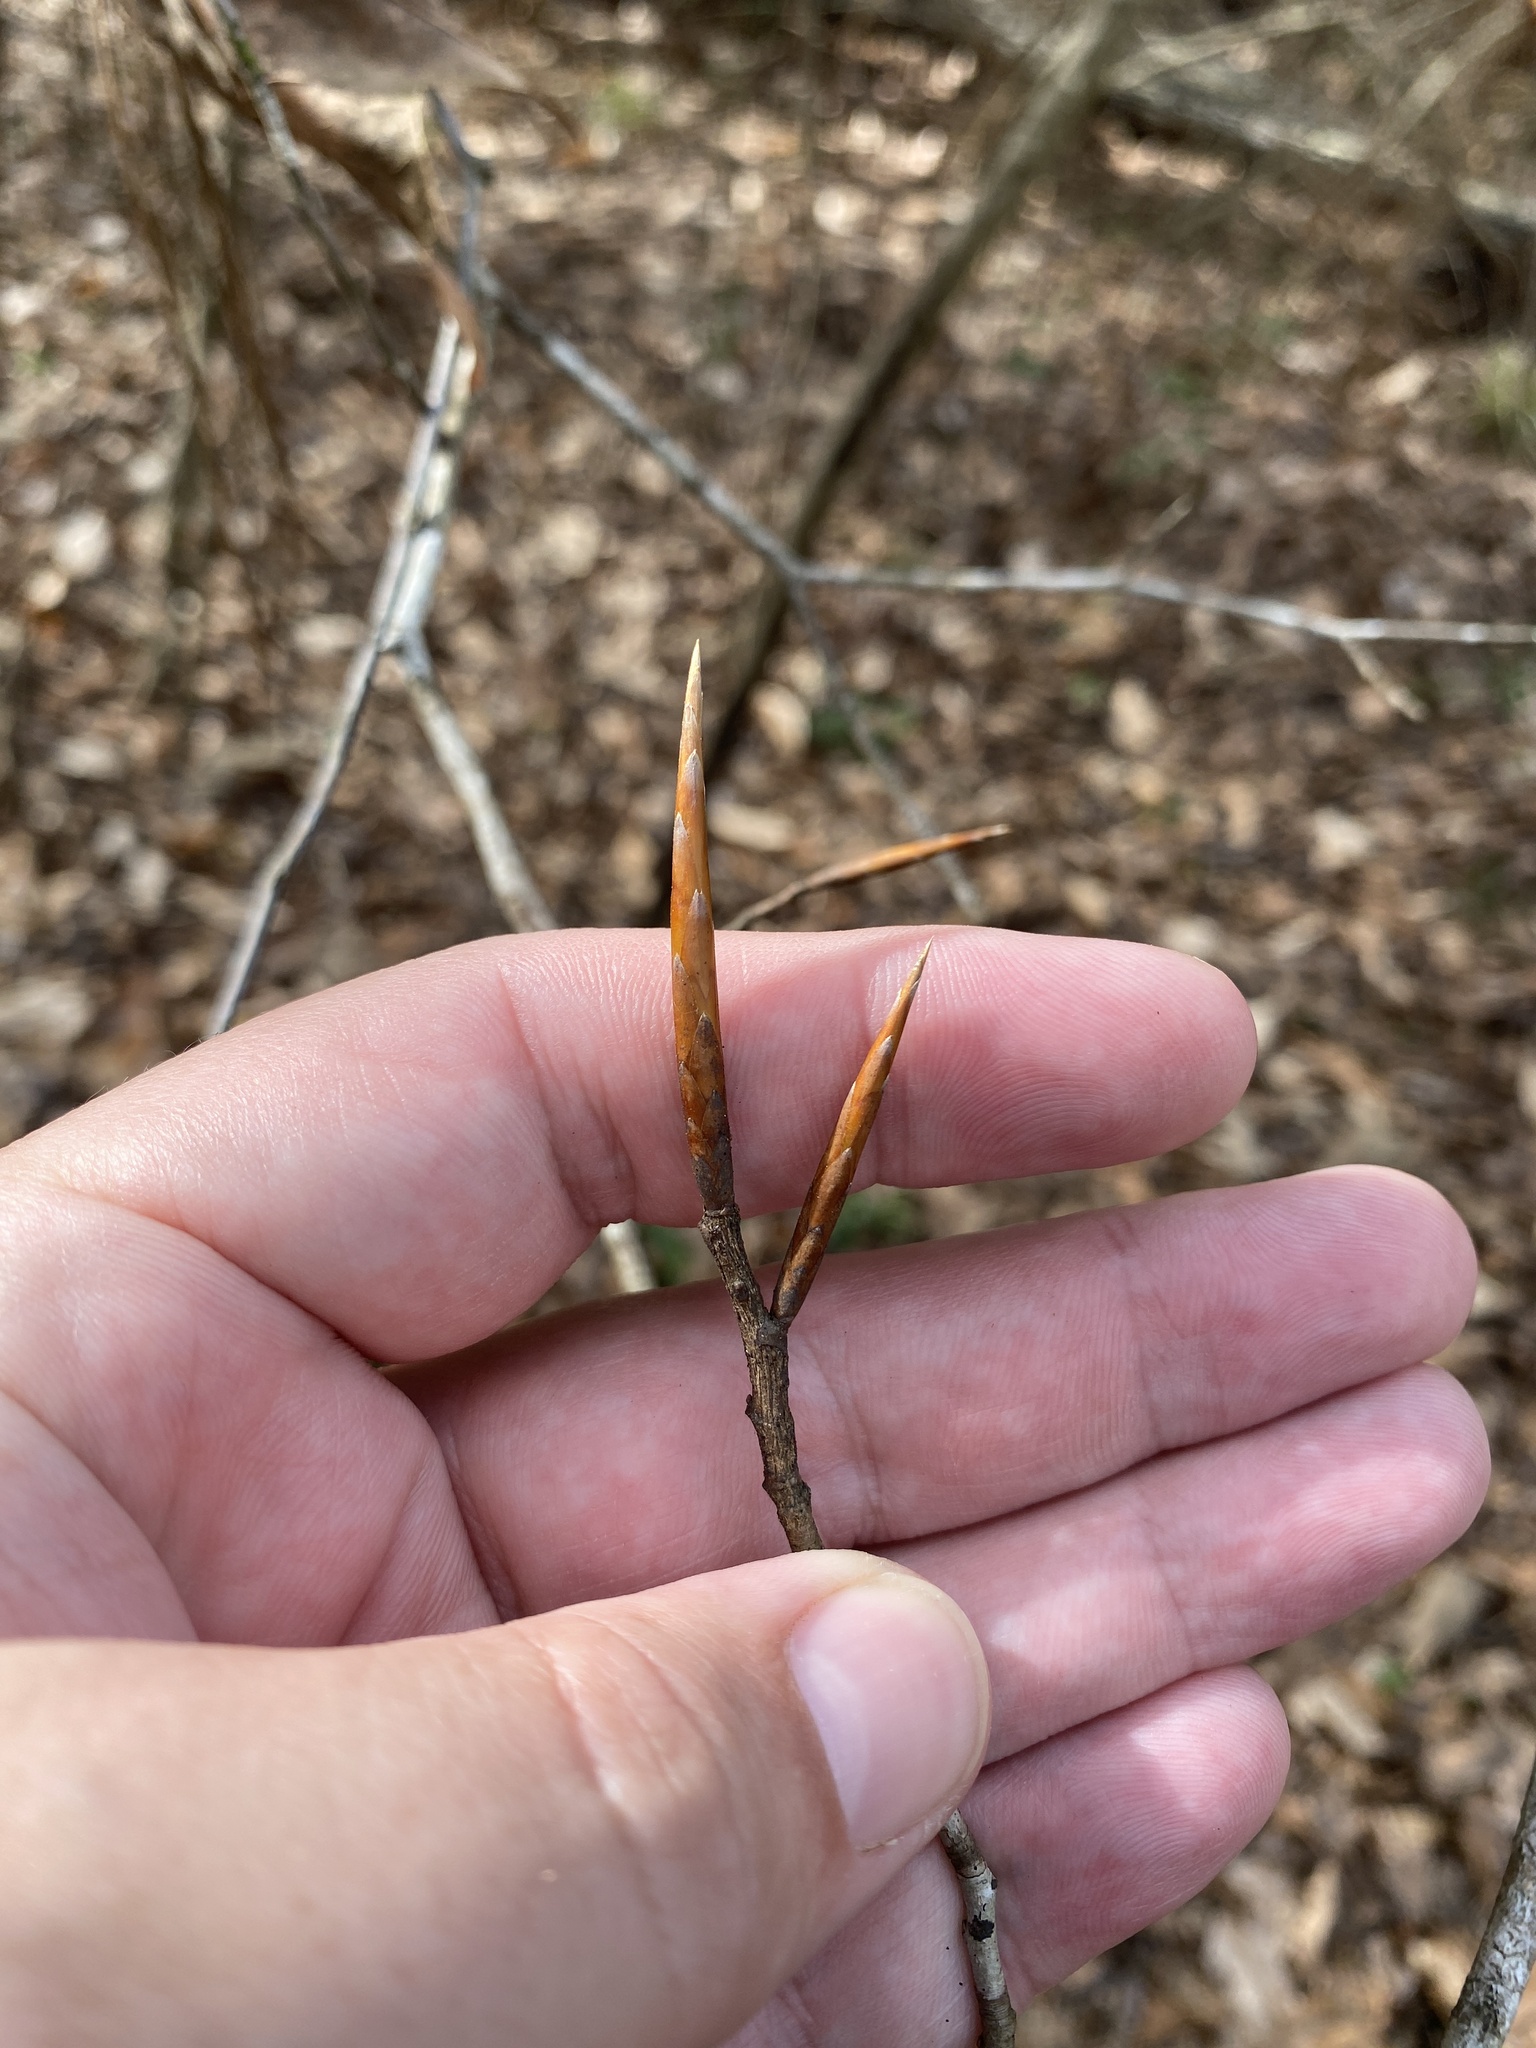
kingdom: Plantae
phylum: Tracheophyta
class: Magnoliopsida
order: Fagales
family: Fagaceae
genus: Fagus
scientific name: Fagus grandifolia
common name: American beech
